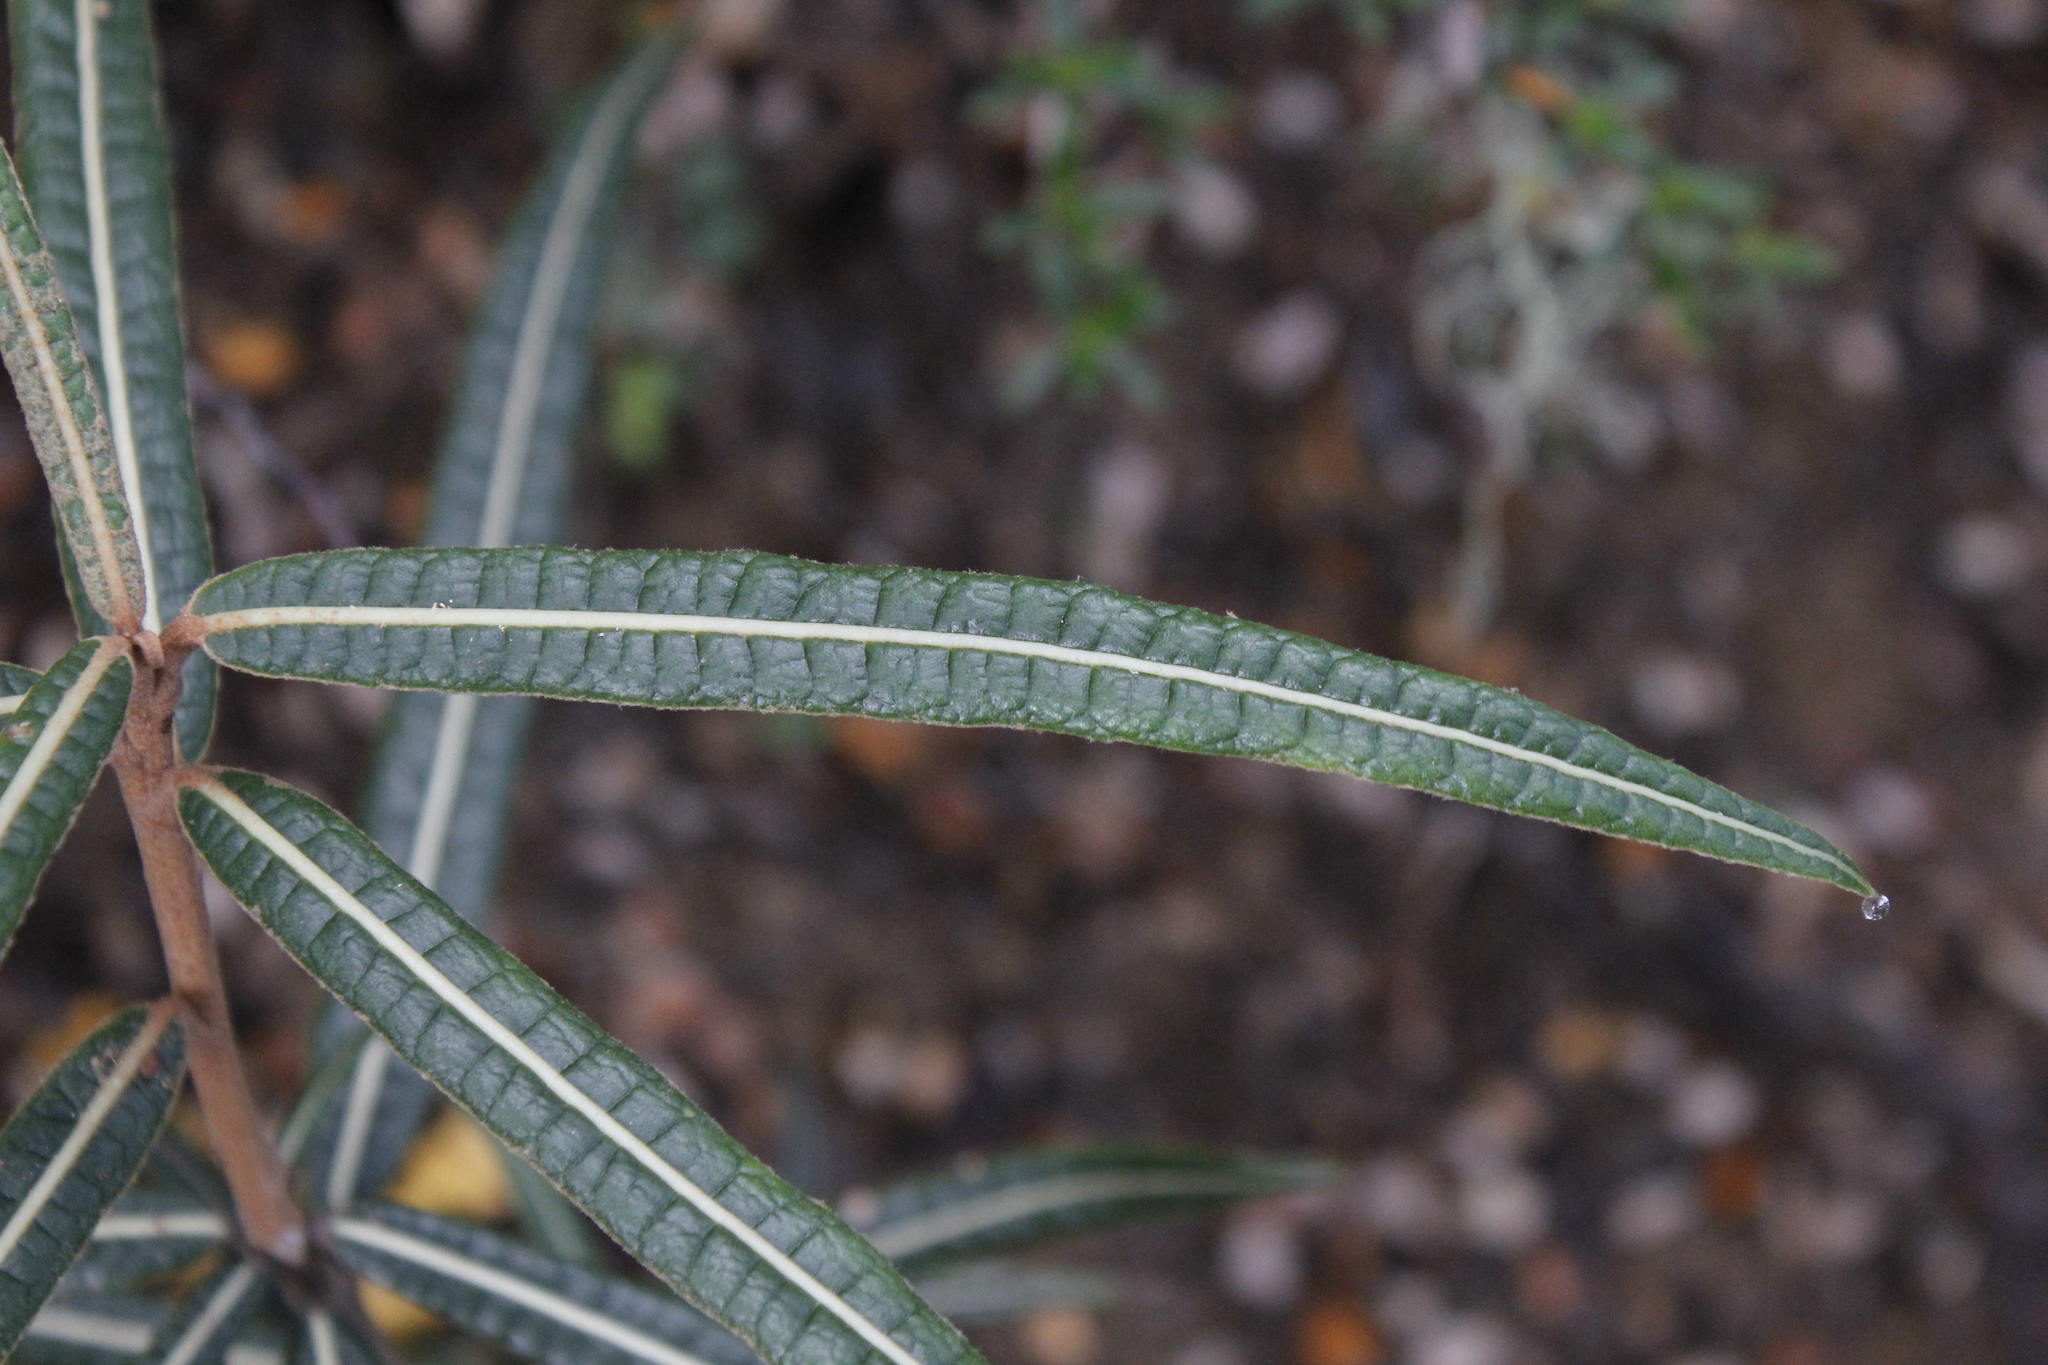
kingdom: Plantae
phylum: Tracheophyta
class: Magnoliopsida
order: Asterales
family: Asteraceae
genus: Olearia
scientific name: Olearia lacunosa
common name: Lancewood tree daisy
